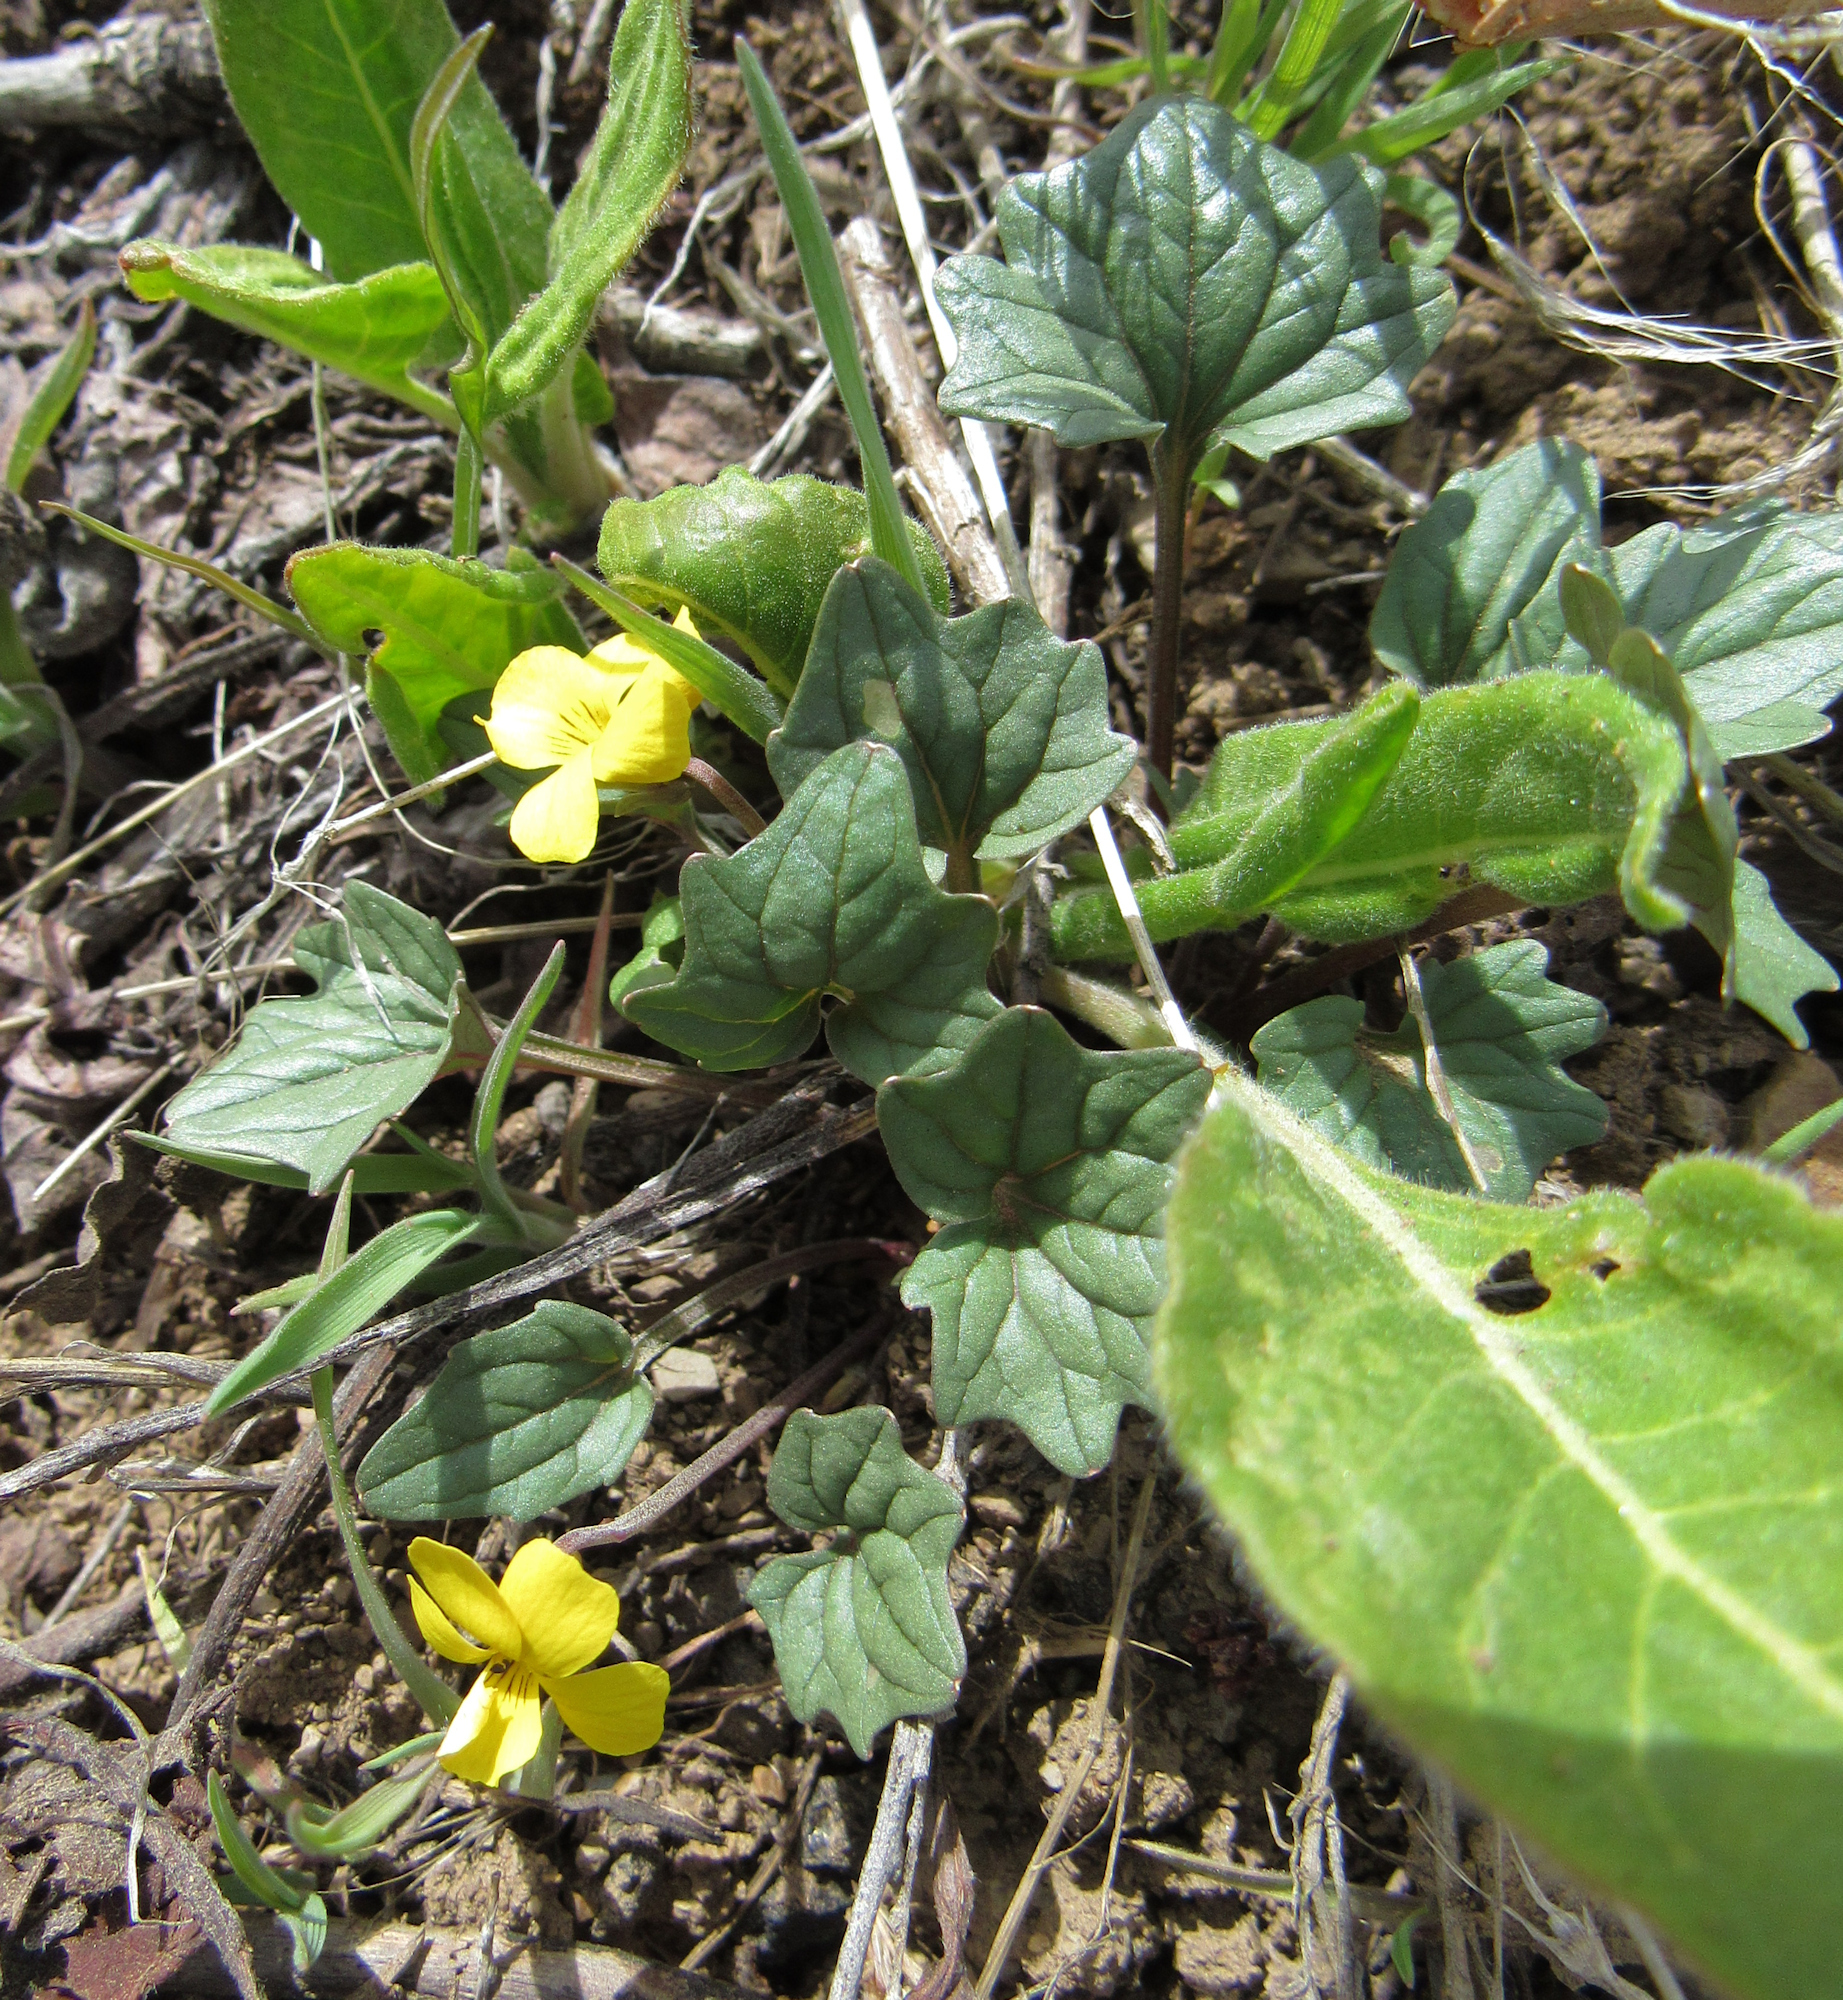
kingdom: Plantae
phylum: Tracheophyta
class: Magnoliopsida
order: Malpighiales
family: Violaceae
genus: Viola
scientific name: Viola purpurea
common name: Pine violet
